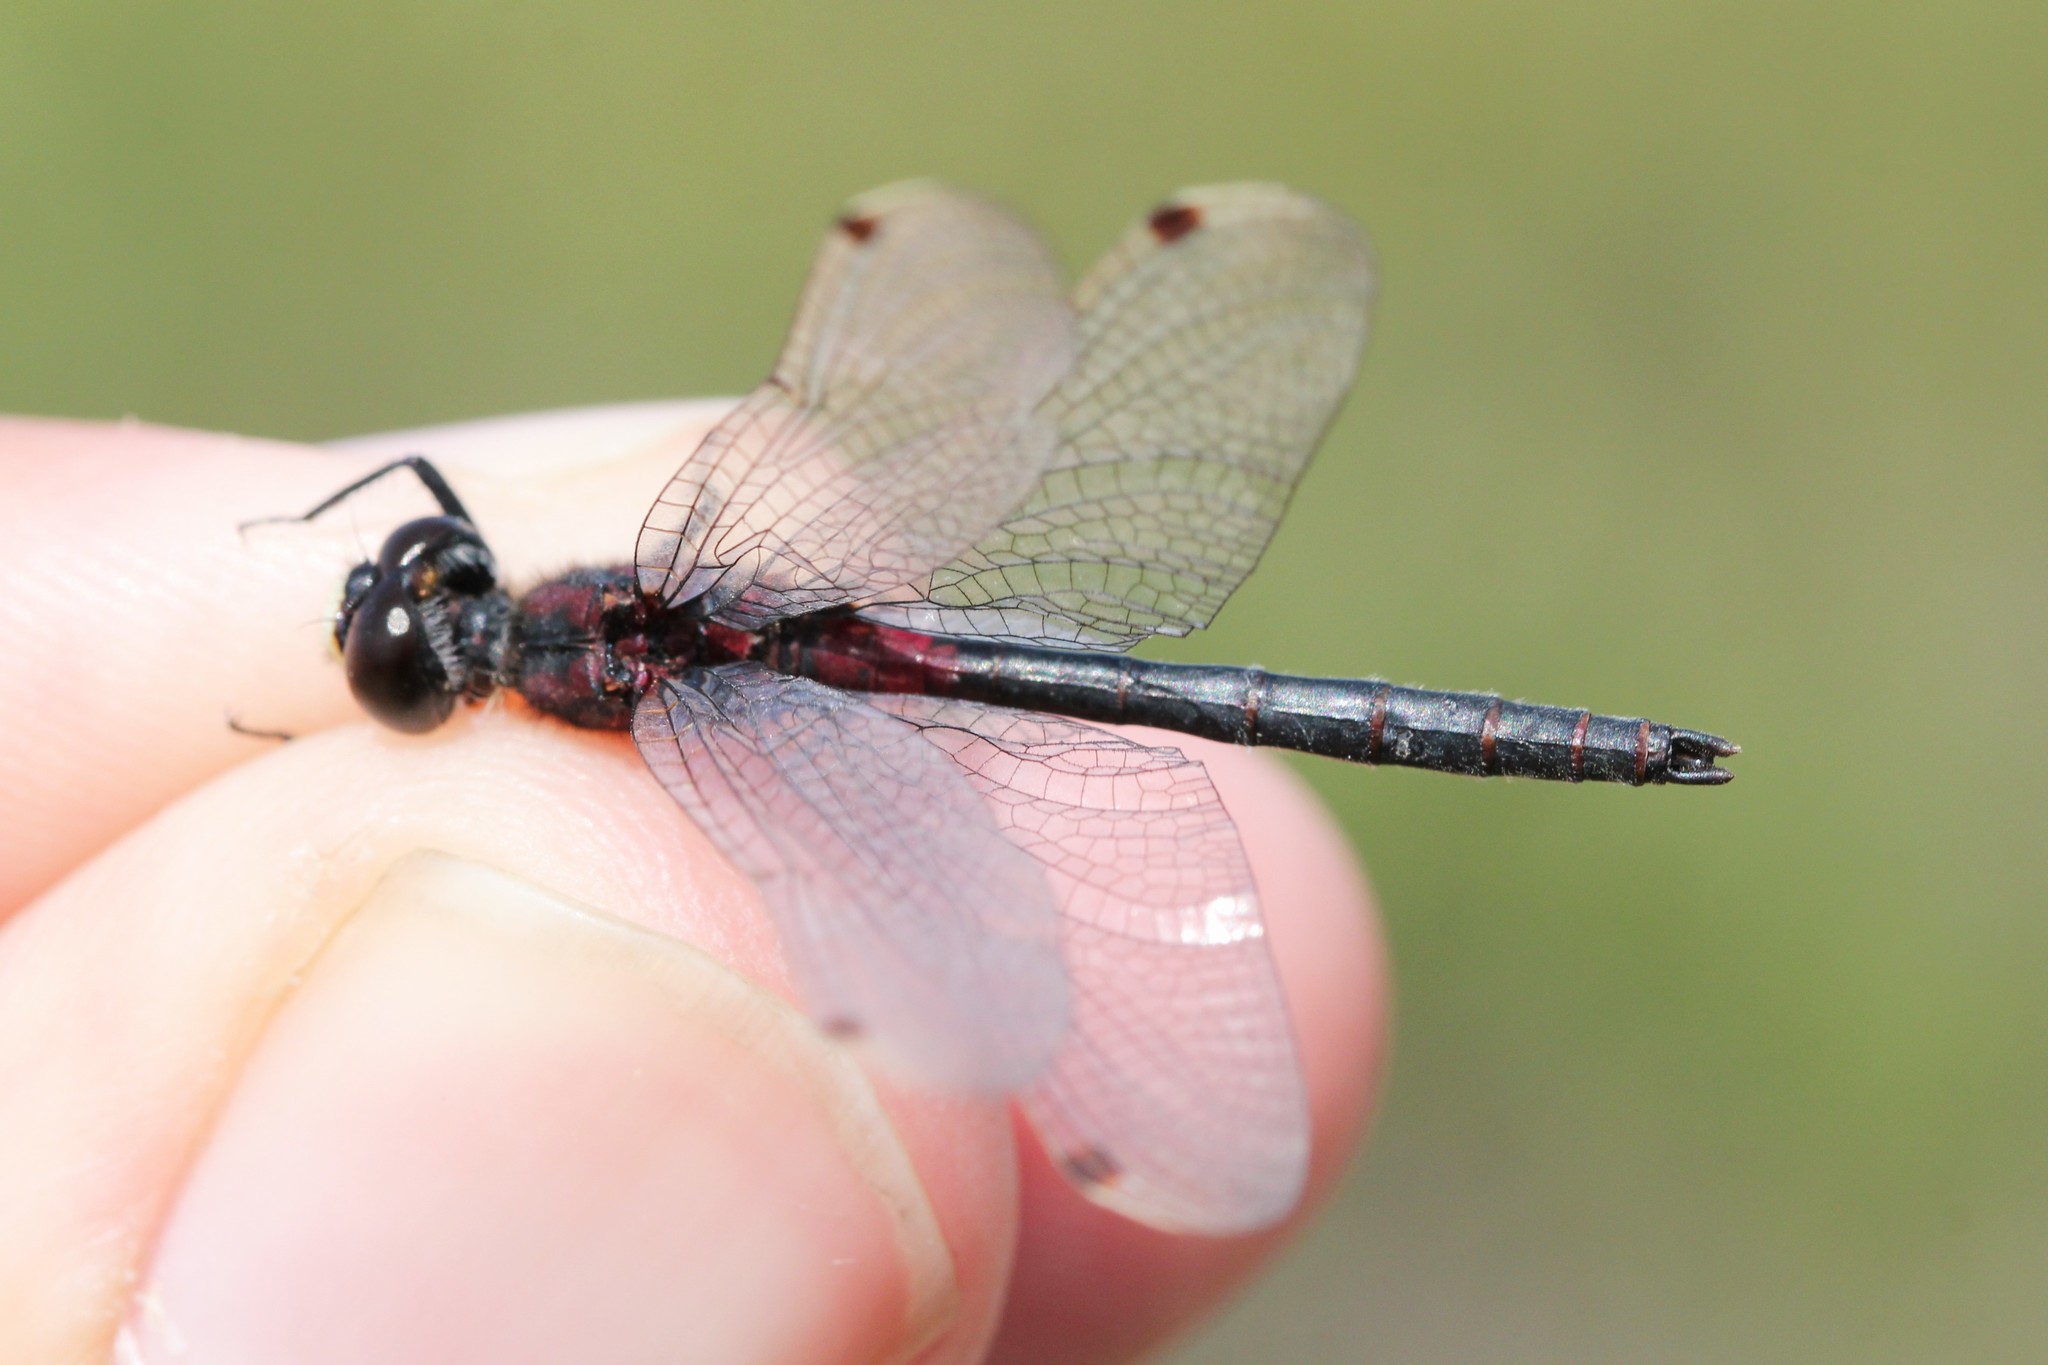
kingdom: Animalia
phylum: Arthropoda
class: Insecta
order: Odonata
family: Libellulidae
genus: Leucorrhinia
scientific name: Leucorrhinia patricia
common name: Canada whiteface
